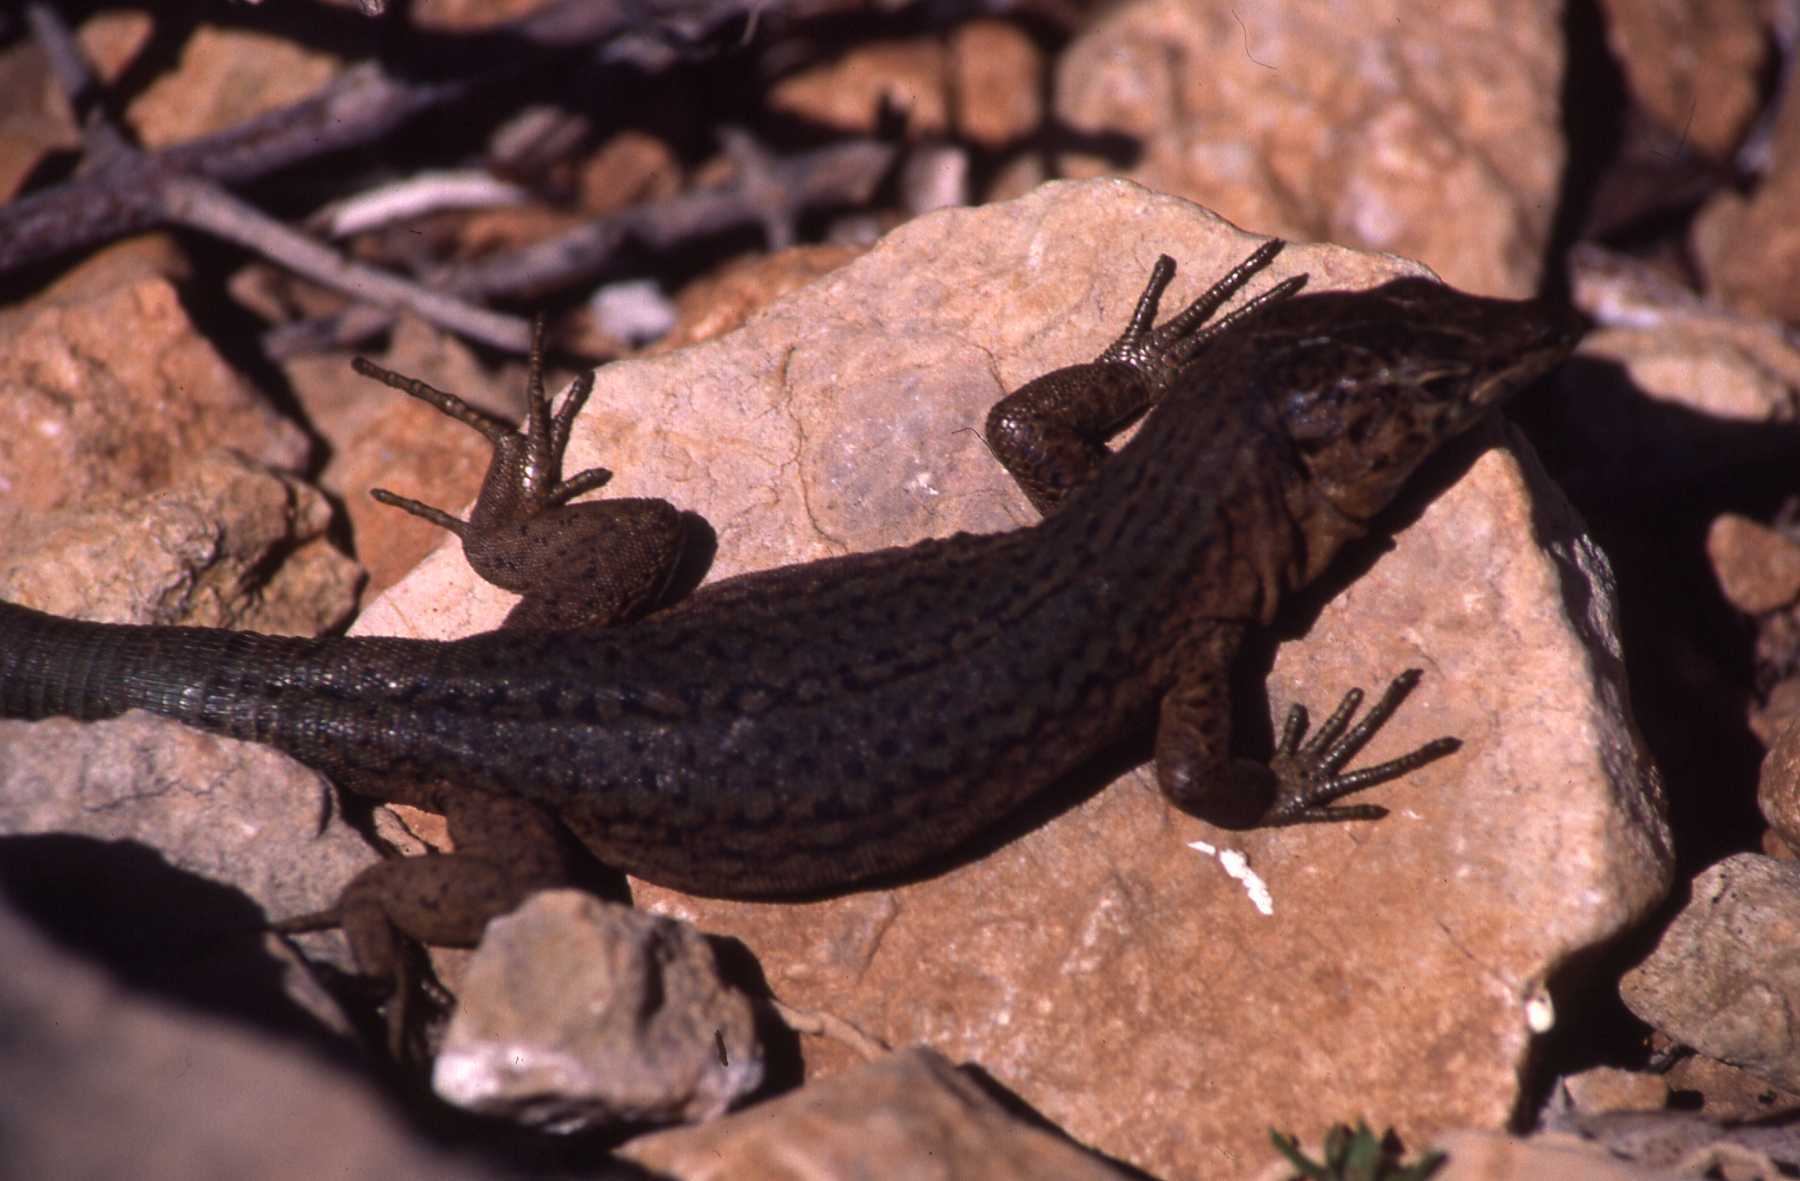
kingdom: Animalia
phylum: Chordata
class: Squamata
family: Lacertidae
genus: Podarcis
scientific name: Podarcis lilfordi
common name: Belearic lizard
